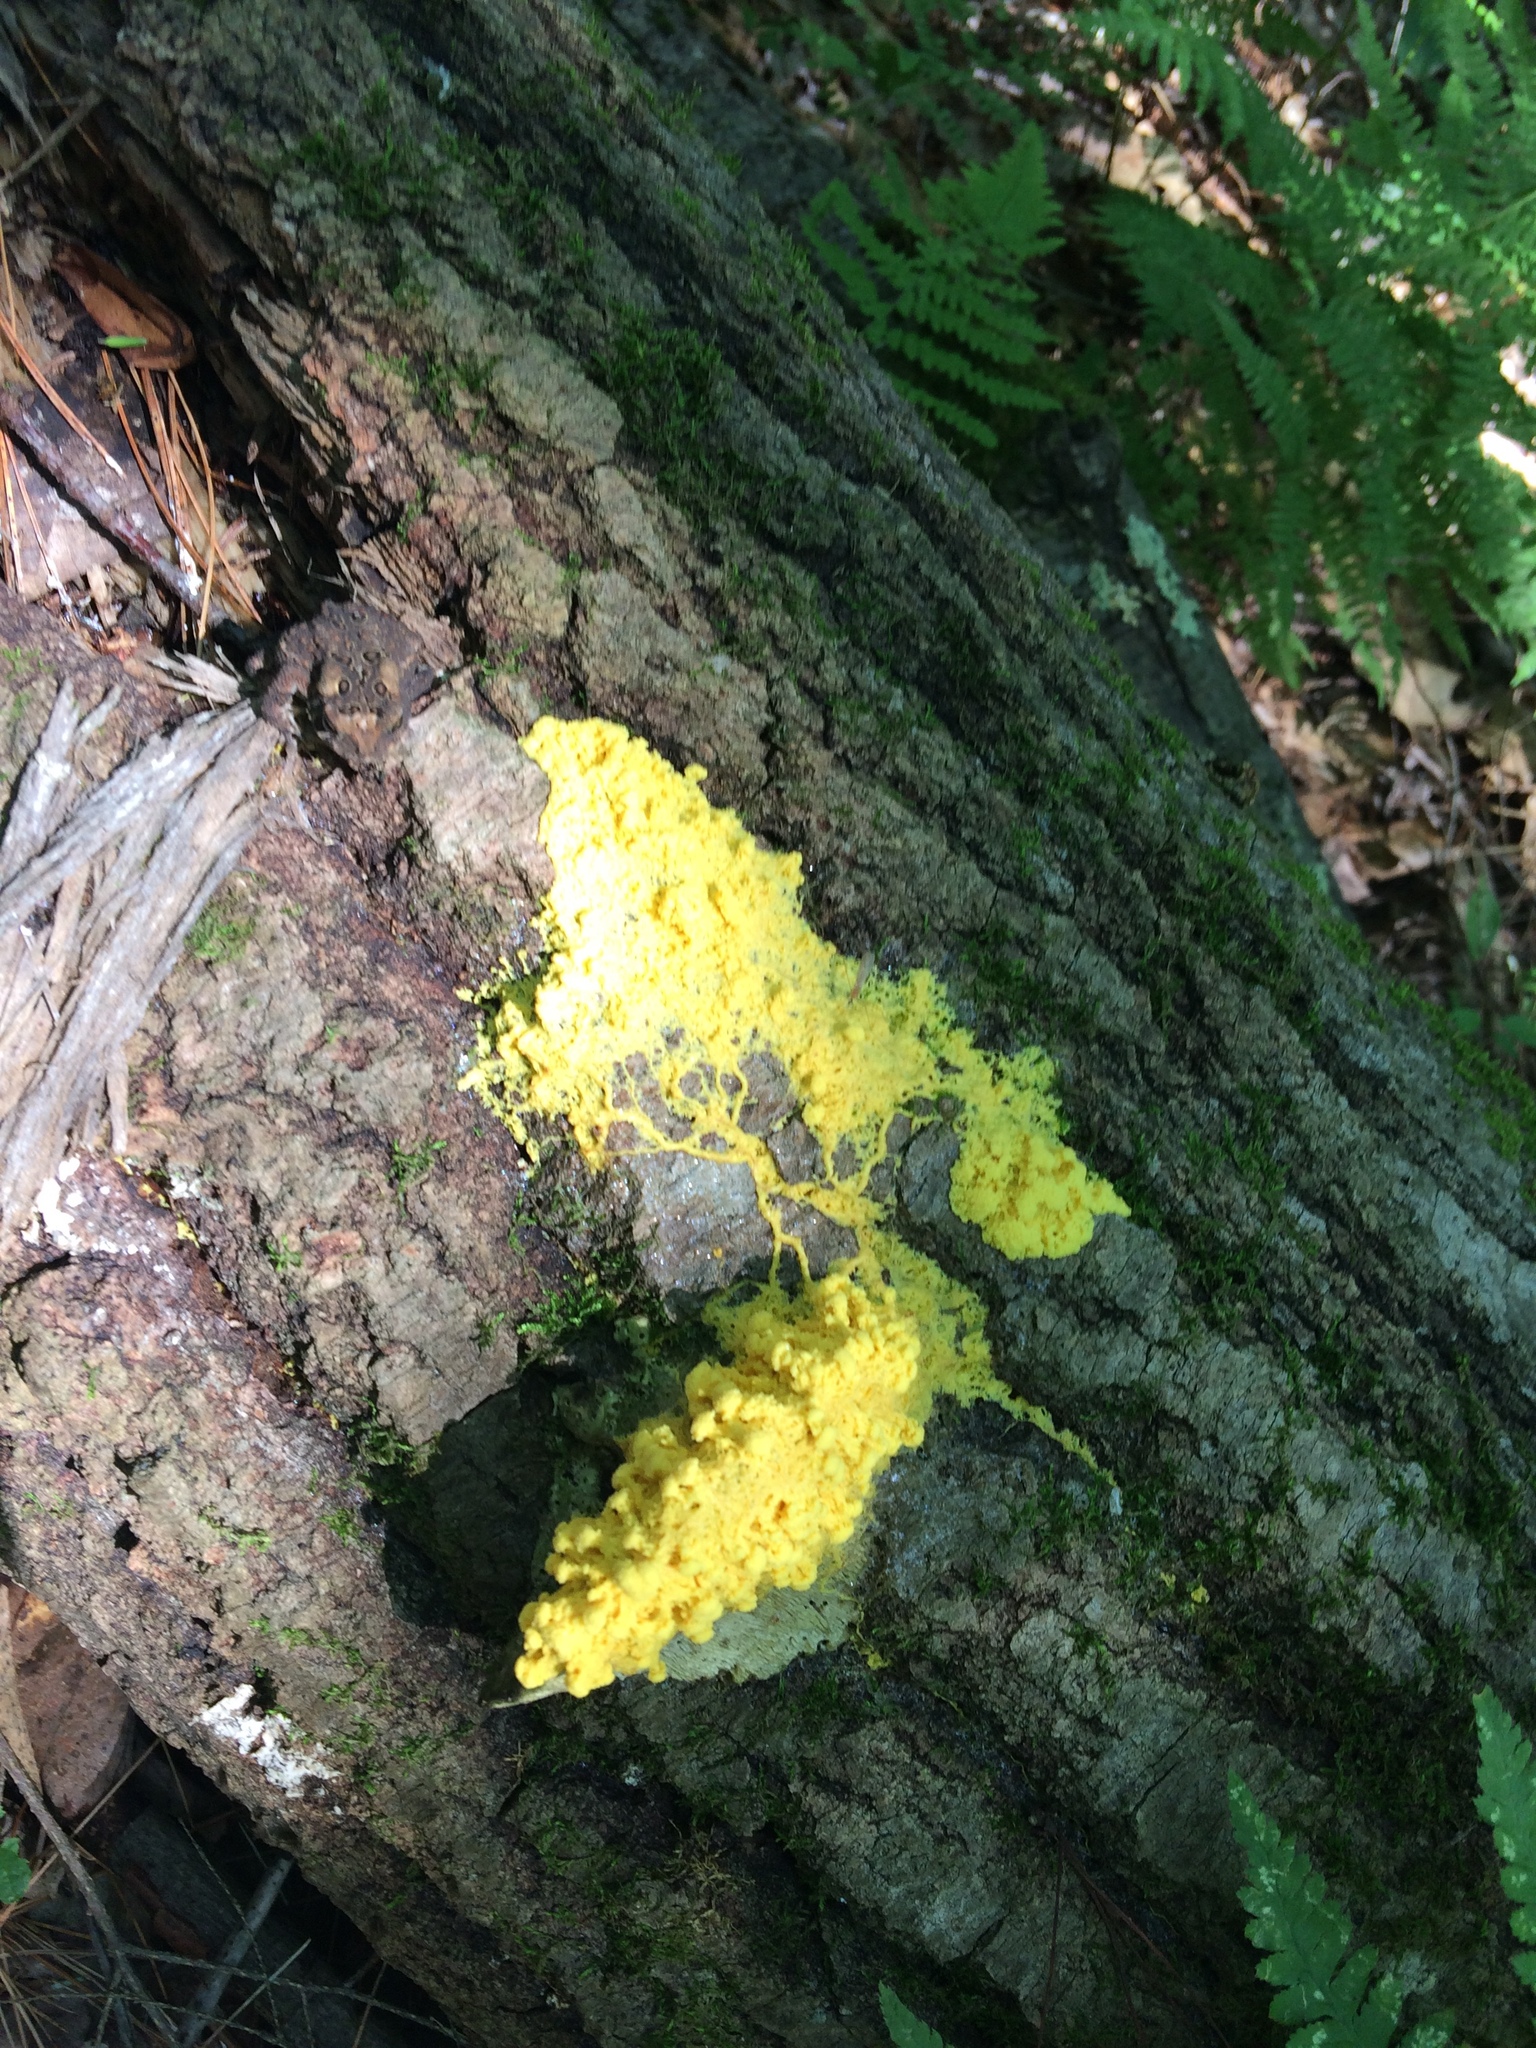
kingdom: Protozoa
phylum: Mycetozoa
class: Myxomycetes
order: Physarales
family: Physaraceae
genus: Fuligo
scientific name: Fuligo septica
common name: Dog vomit slime mold
